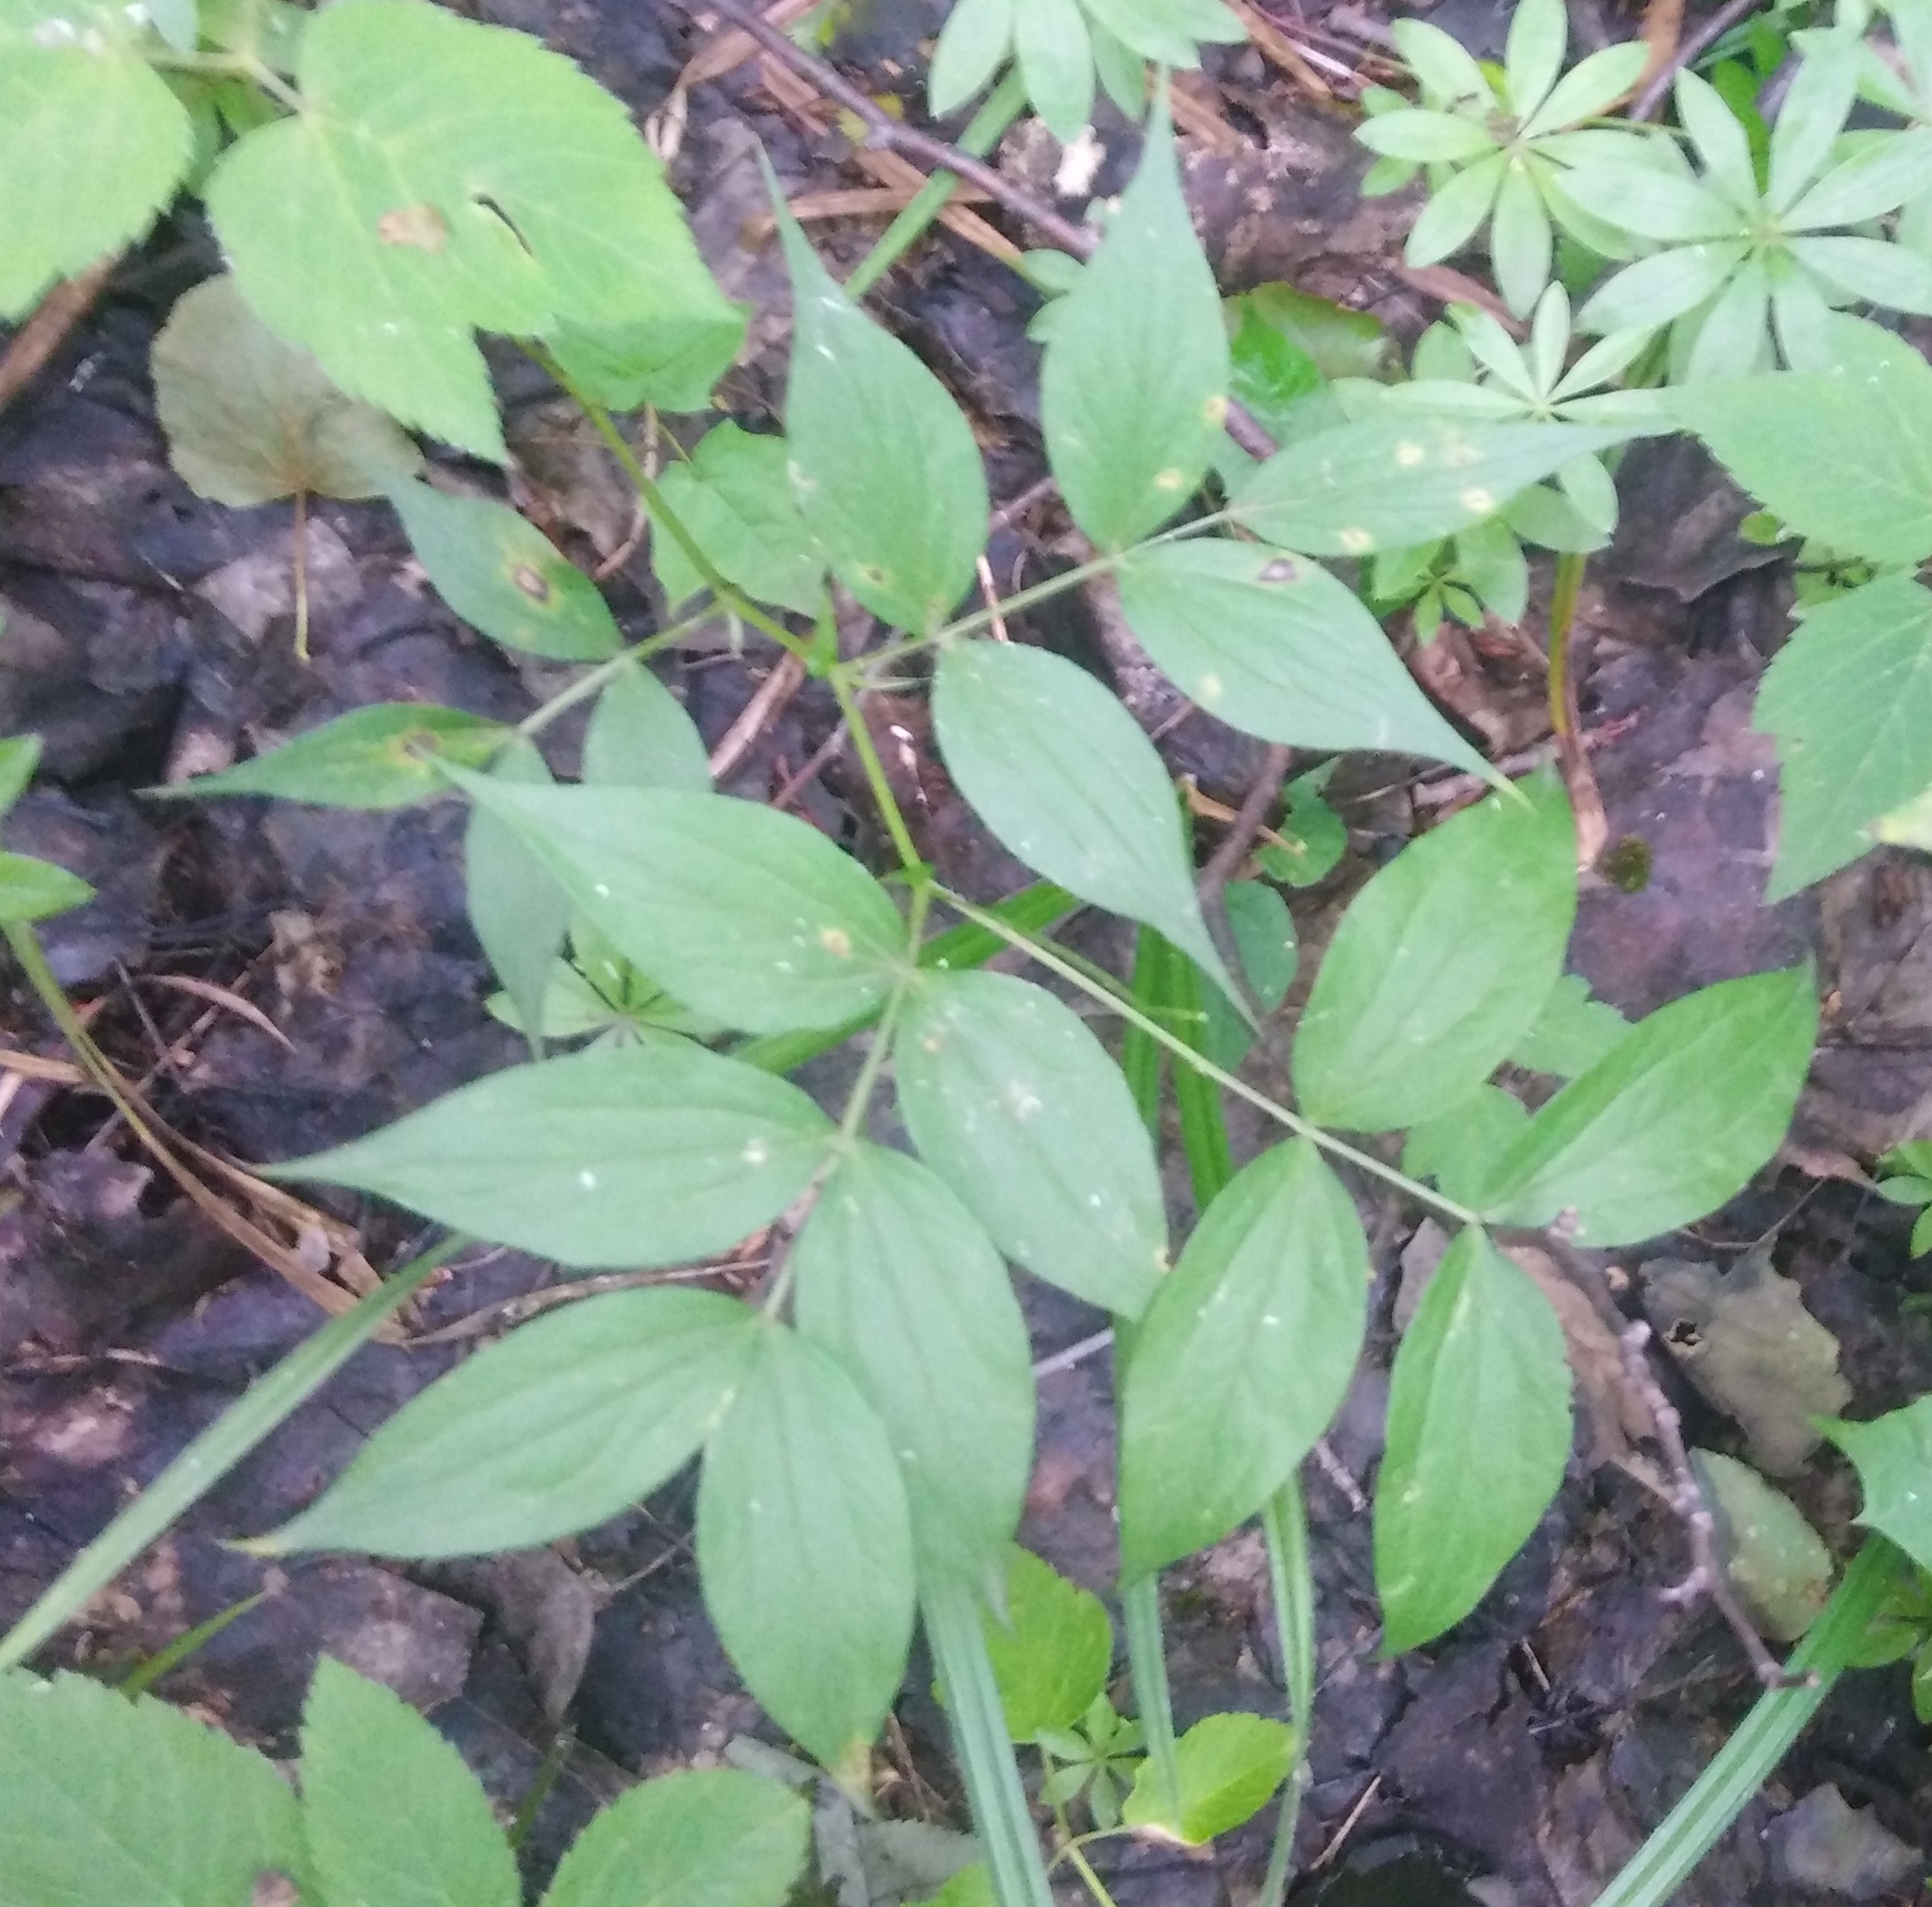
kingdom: Plantae
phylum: Tracheophyta
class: Magnoliopsida
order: Fabales
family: Fabaceae
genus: Lathyrus
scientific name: Lathyrus vernus
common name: Spring pea
